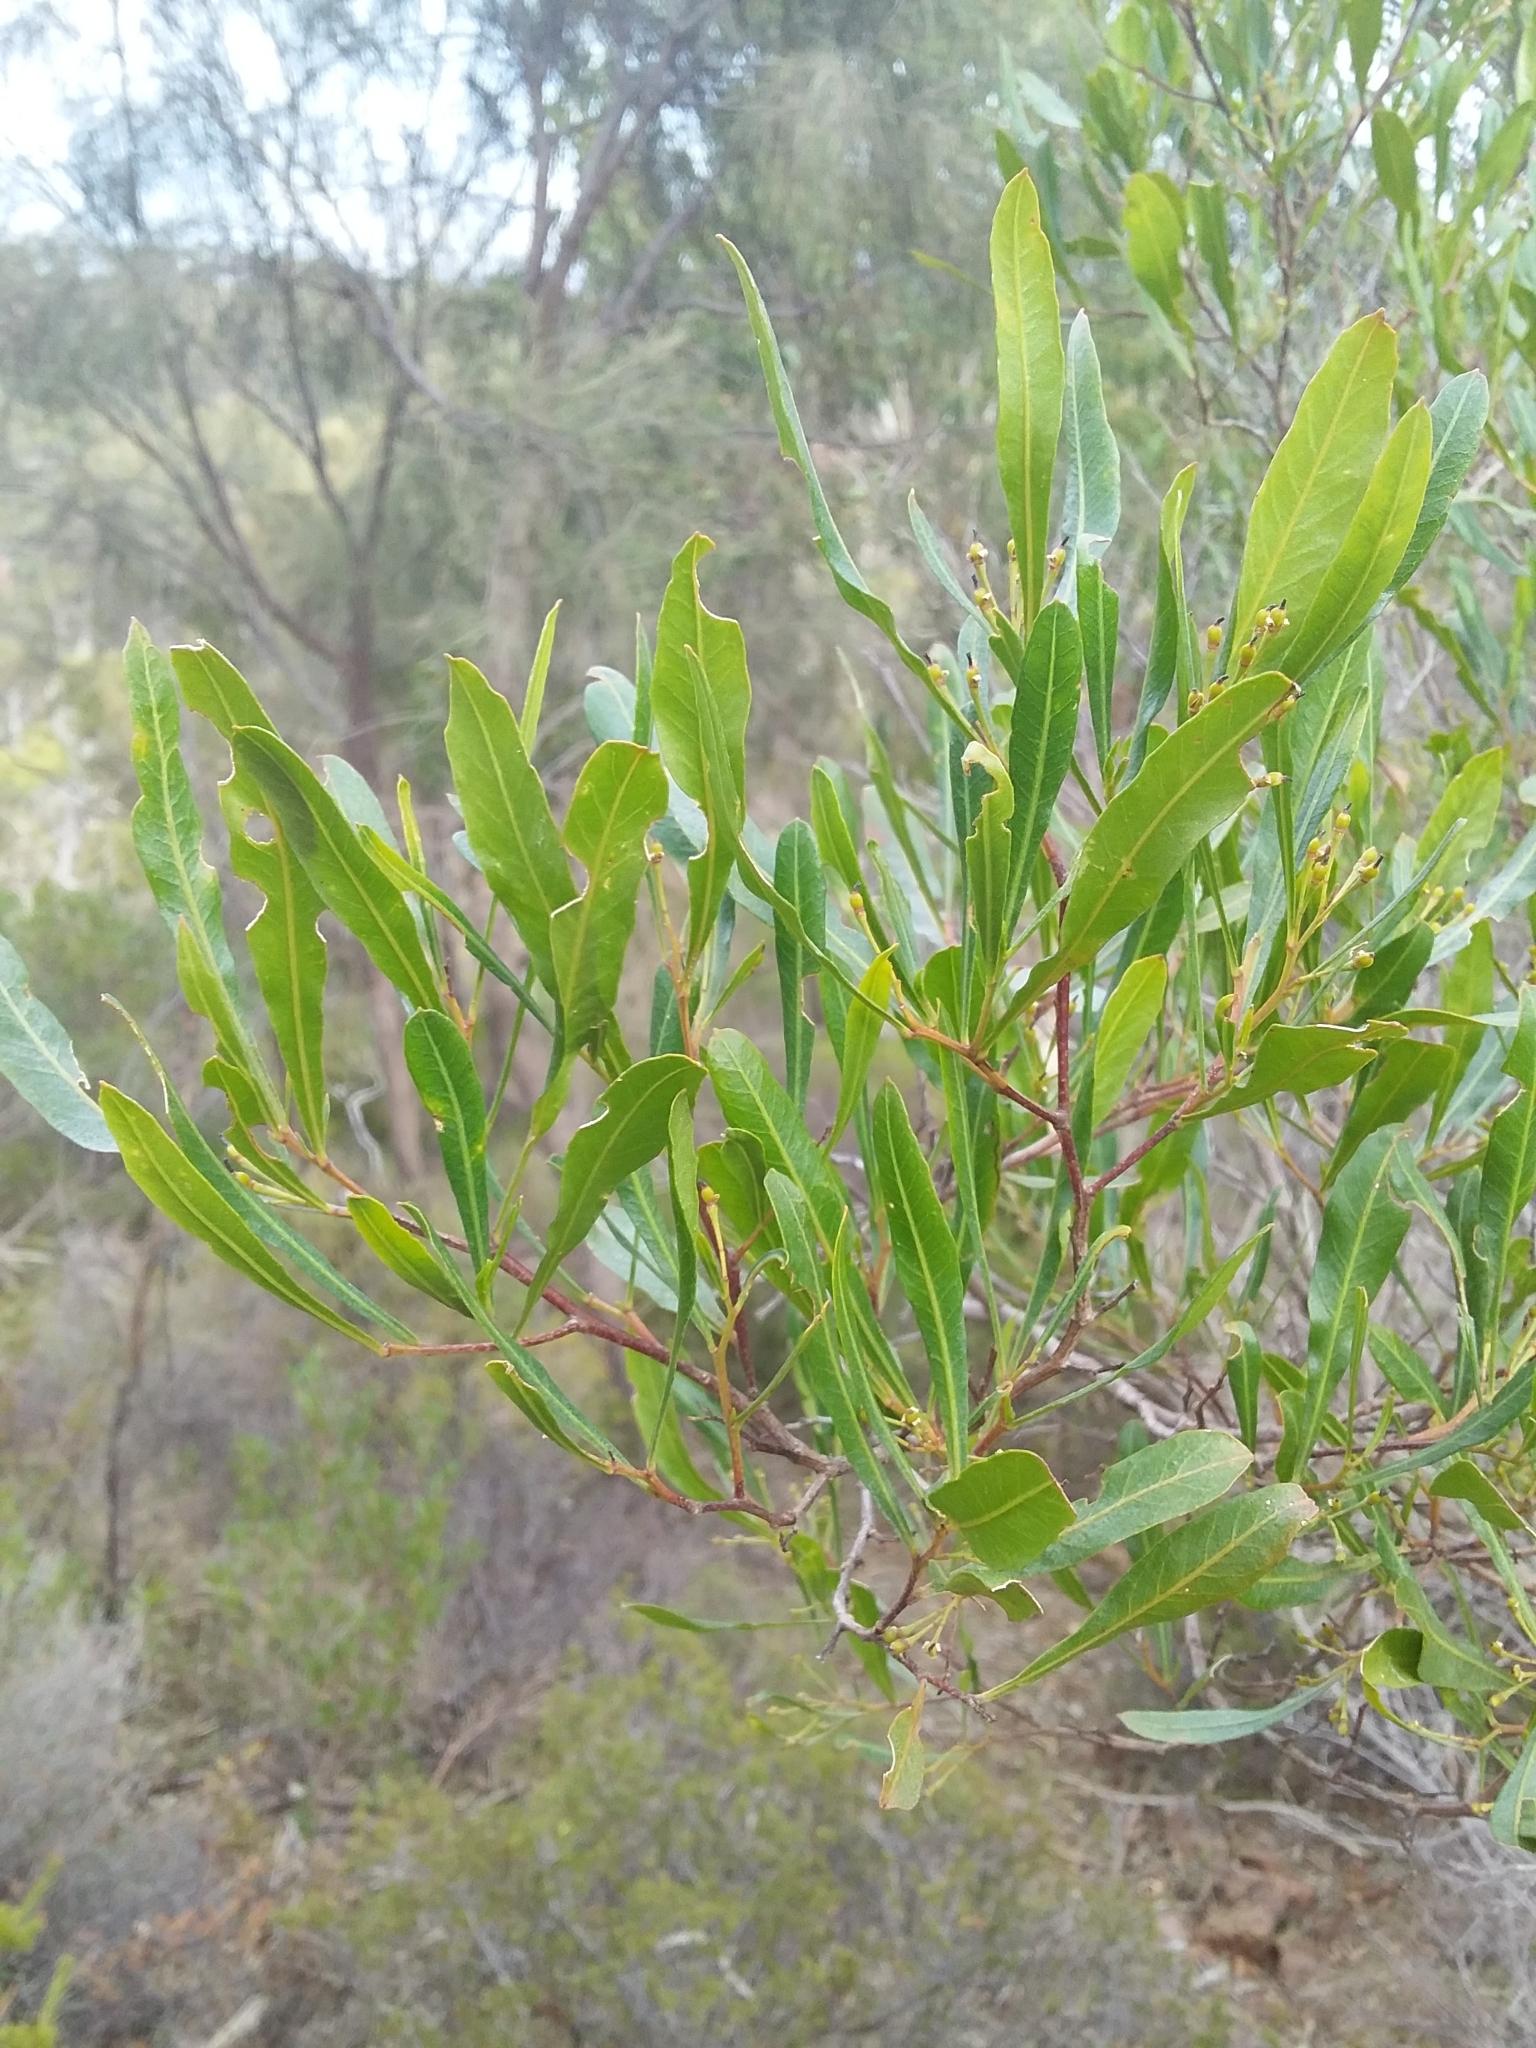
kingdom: Plantae
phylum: Tracheophyta
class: Magnoliopsida
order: Sapindales
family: Sapindaceae
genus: Dodonaea
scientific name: Dodonaea viscosa
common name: Hopbush
